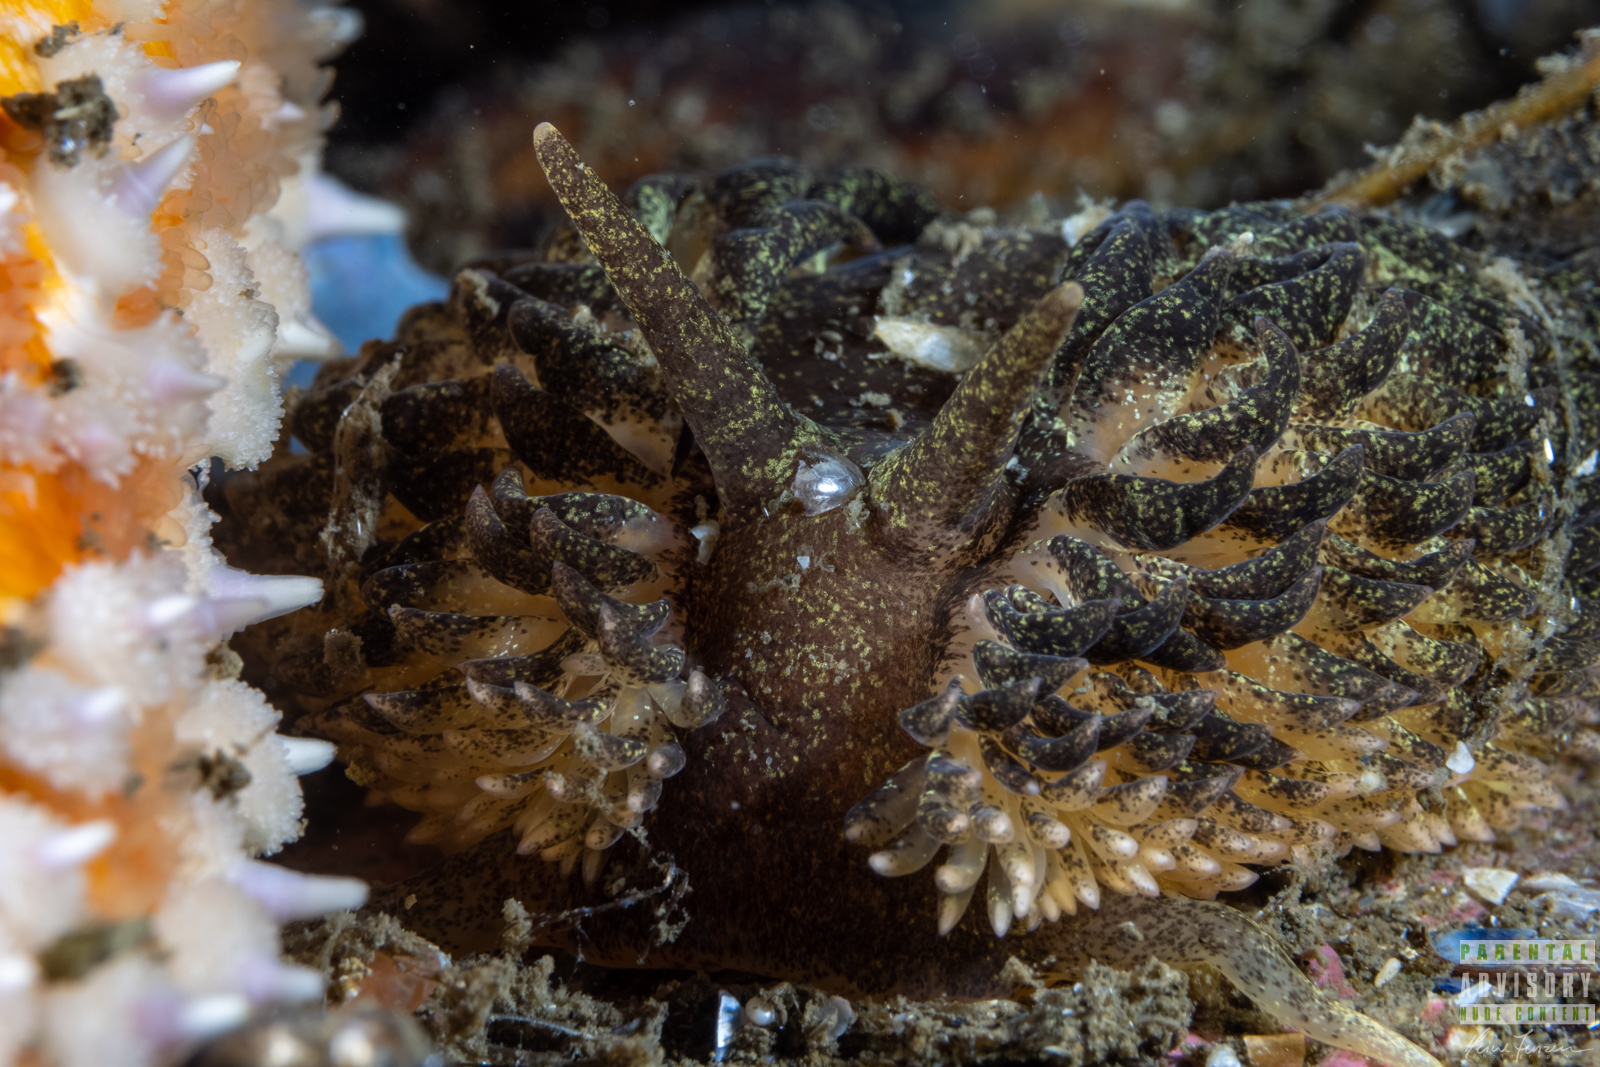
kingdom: Animalia
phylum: Mollusca
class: Gastropoda
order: Nudibranchia
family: Aeolidiidae
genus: Aeolidia
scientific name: Aeolidia papillosa
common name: Common grey sea slug
